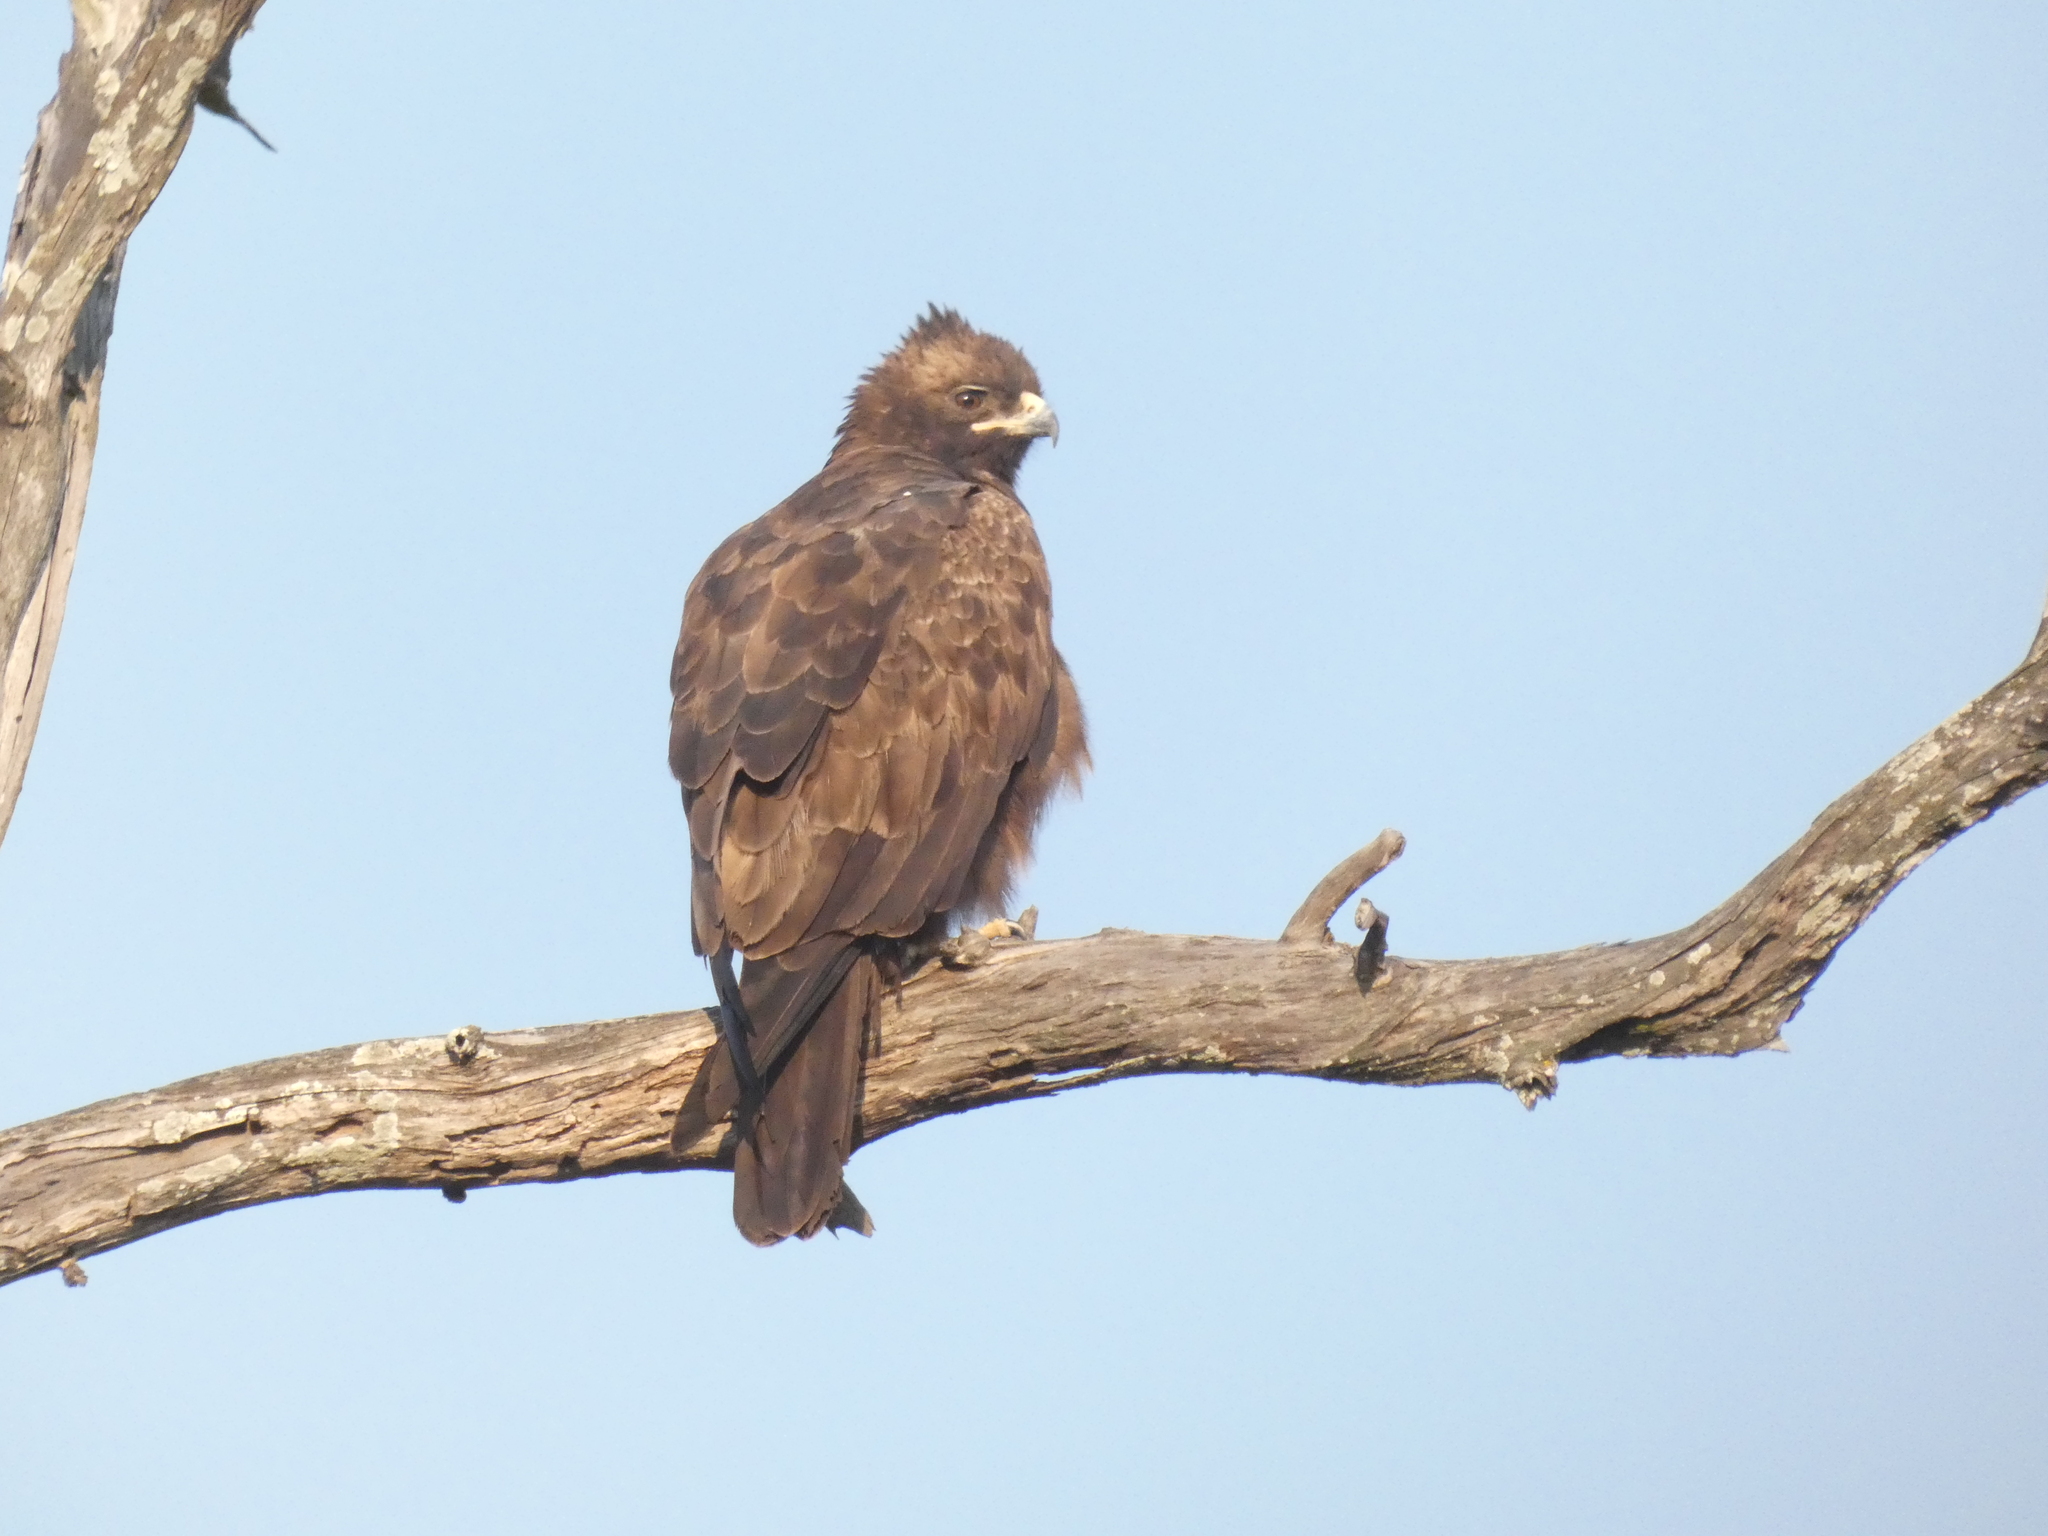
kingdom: Animalia
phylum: Chordata
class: Aves
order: Accipitriformes
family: Accipitridae
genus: Hieraaetus
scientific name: Hieraaetus wahlbergi
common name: Wahlberg's eagle
